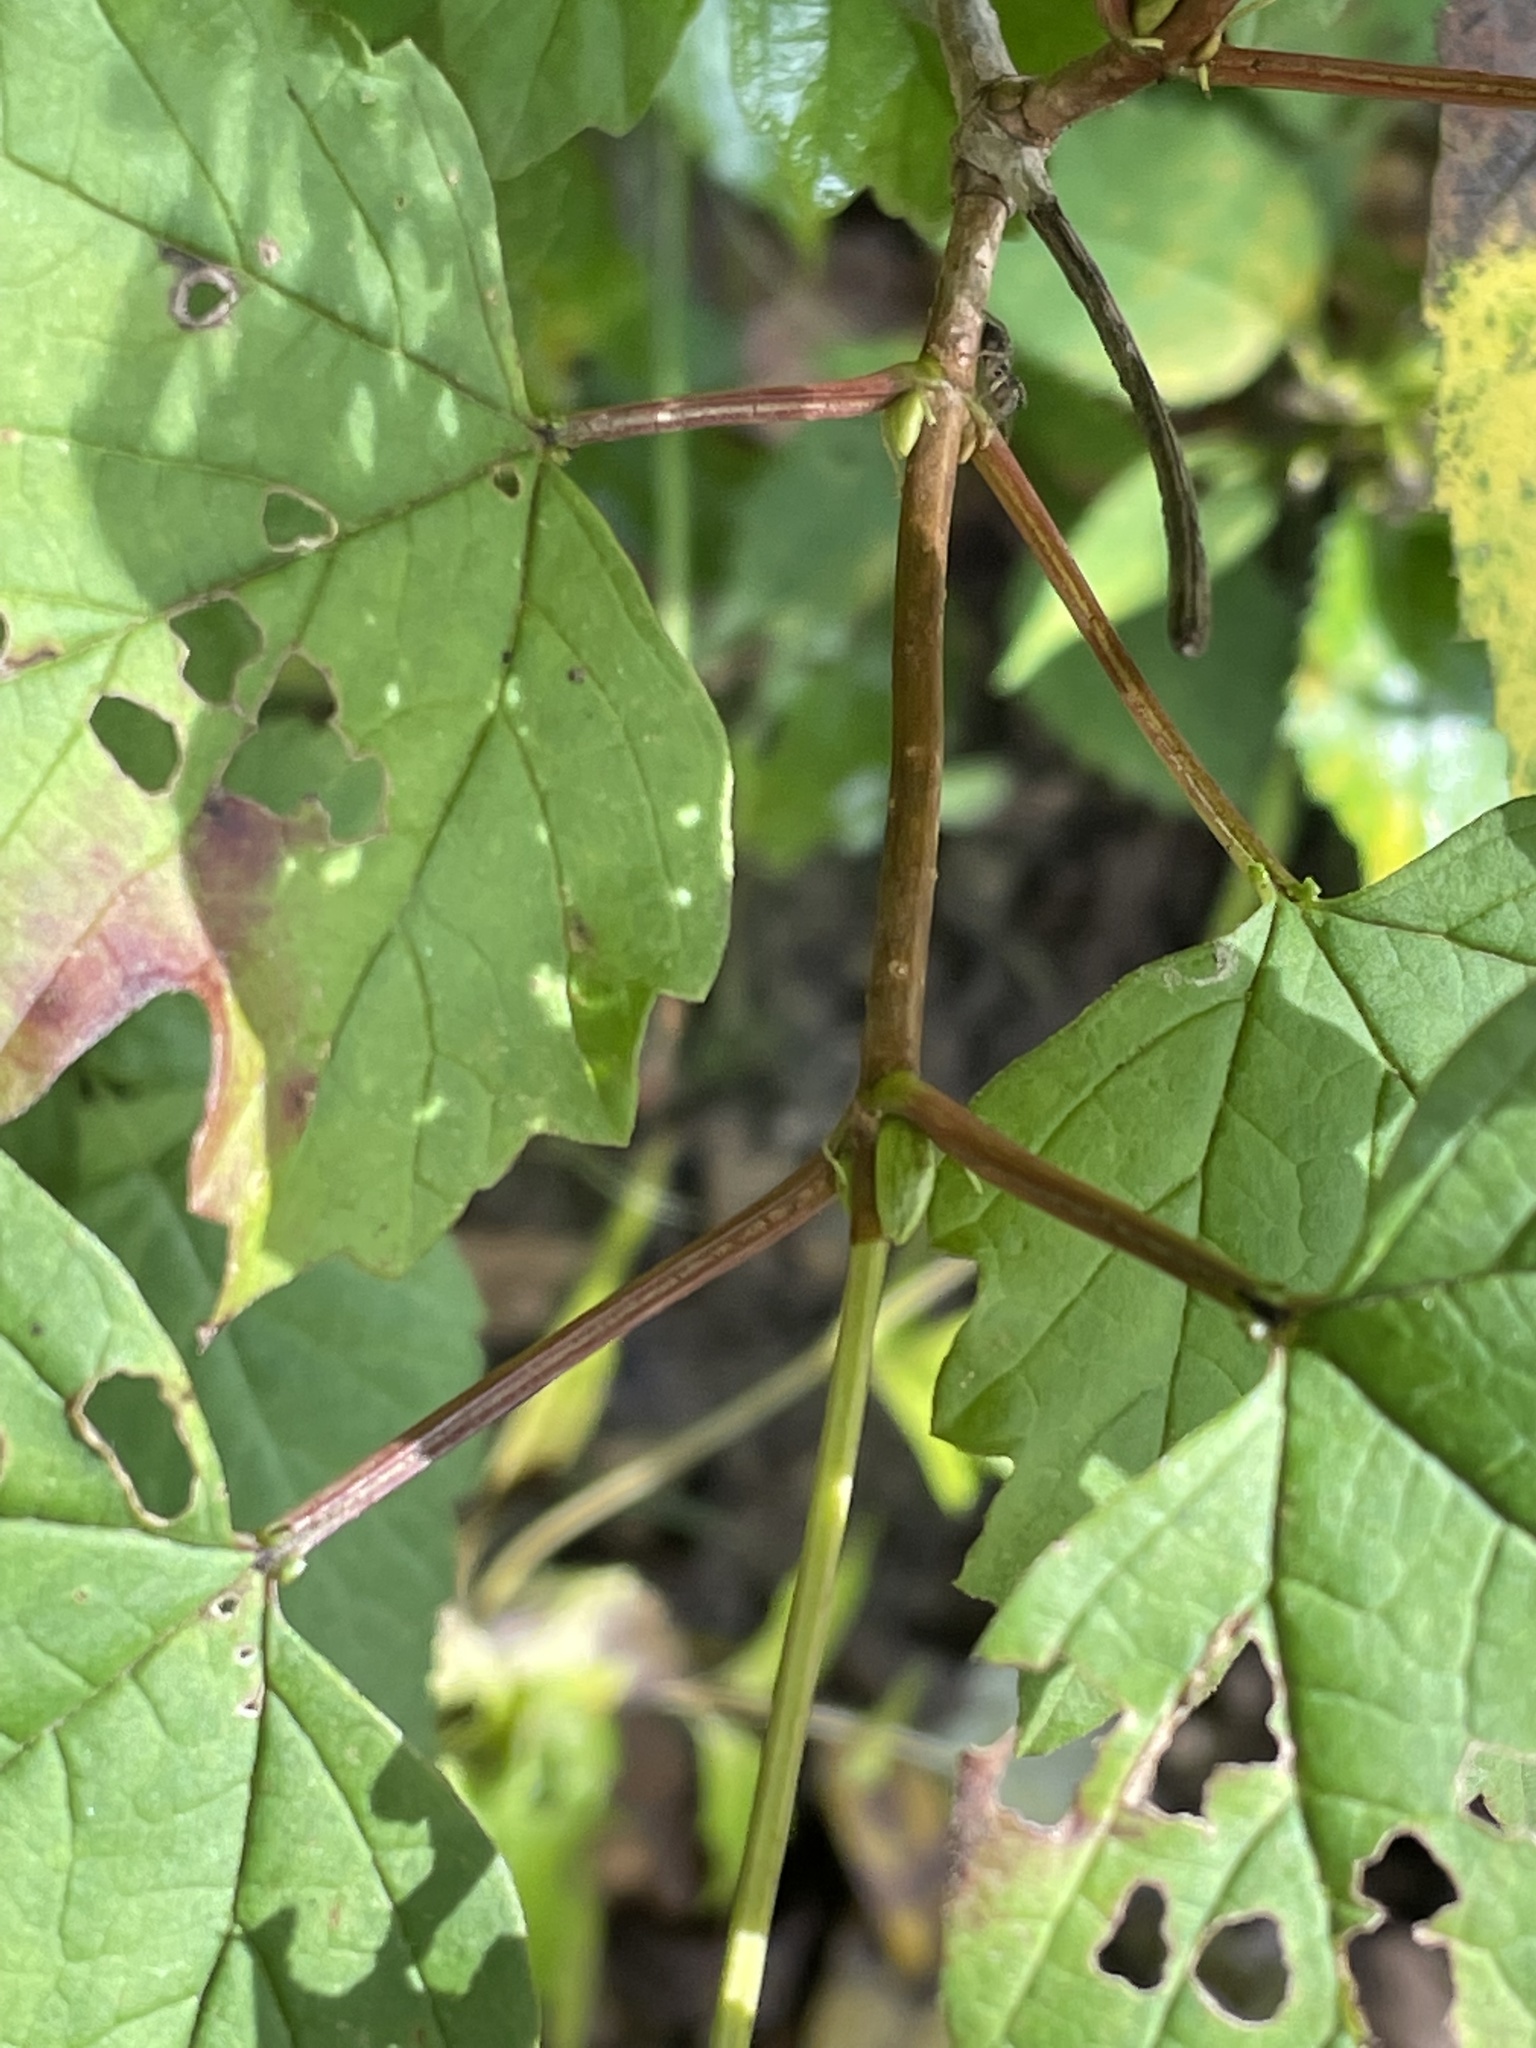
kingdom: Plantae
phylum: Tracheophyta
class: Magnoliopsida
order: Dipsacales
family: Viburnaceae
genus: Viburnum
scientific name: Viburnum acerifolium
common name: Dockmackie
